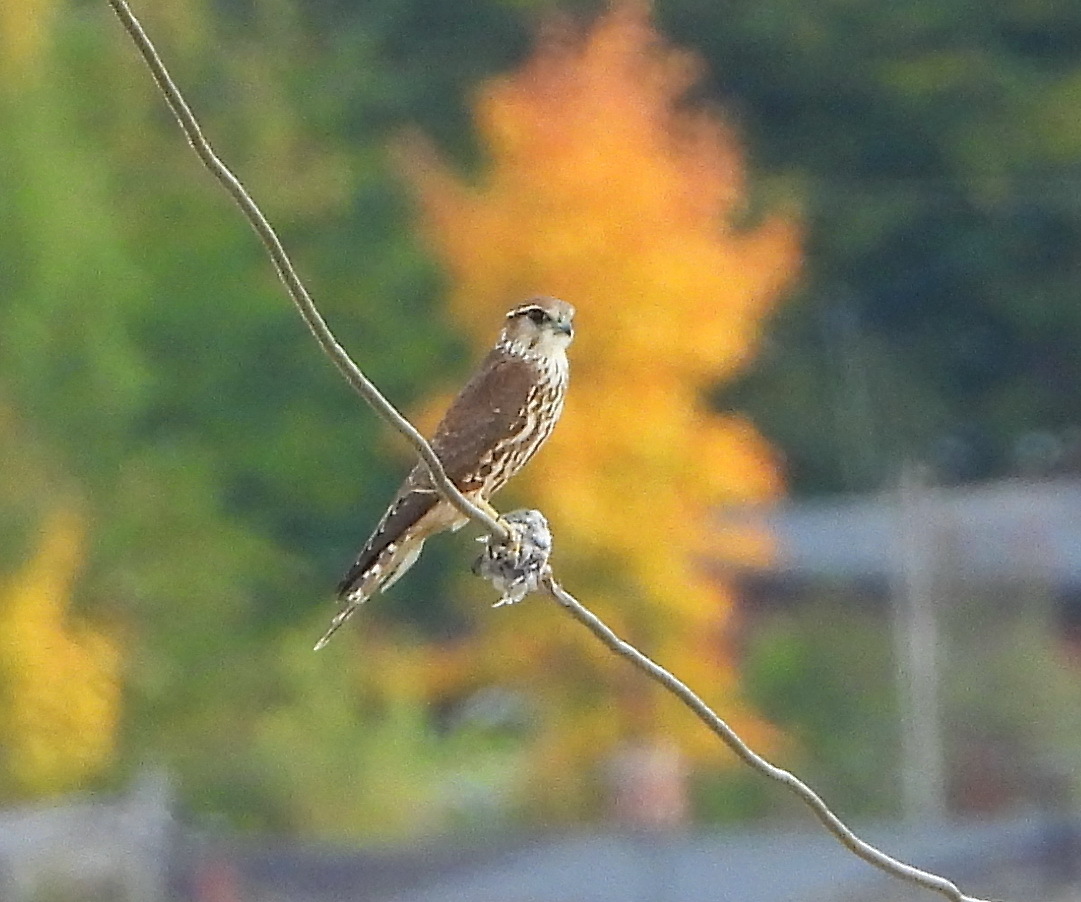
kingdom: Animalia
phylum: Chordata
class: Aves
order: Falconiformes
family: Falconidae
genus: Falco
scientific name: Falco columbarius
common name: Merlin
